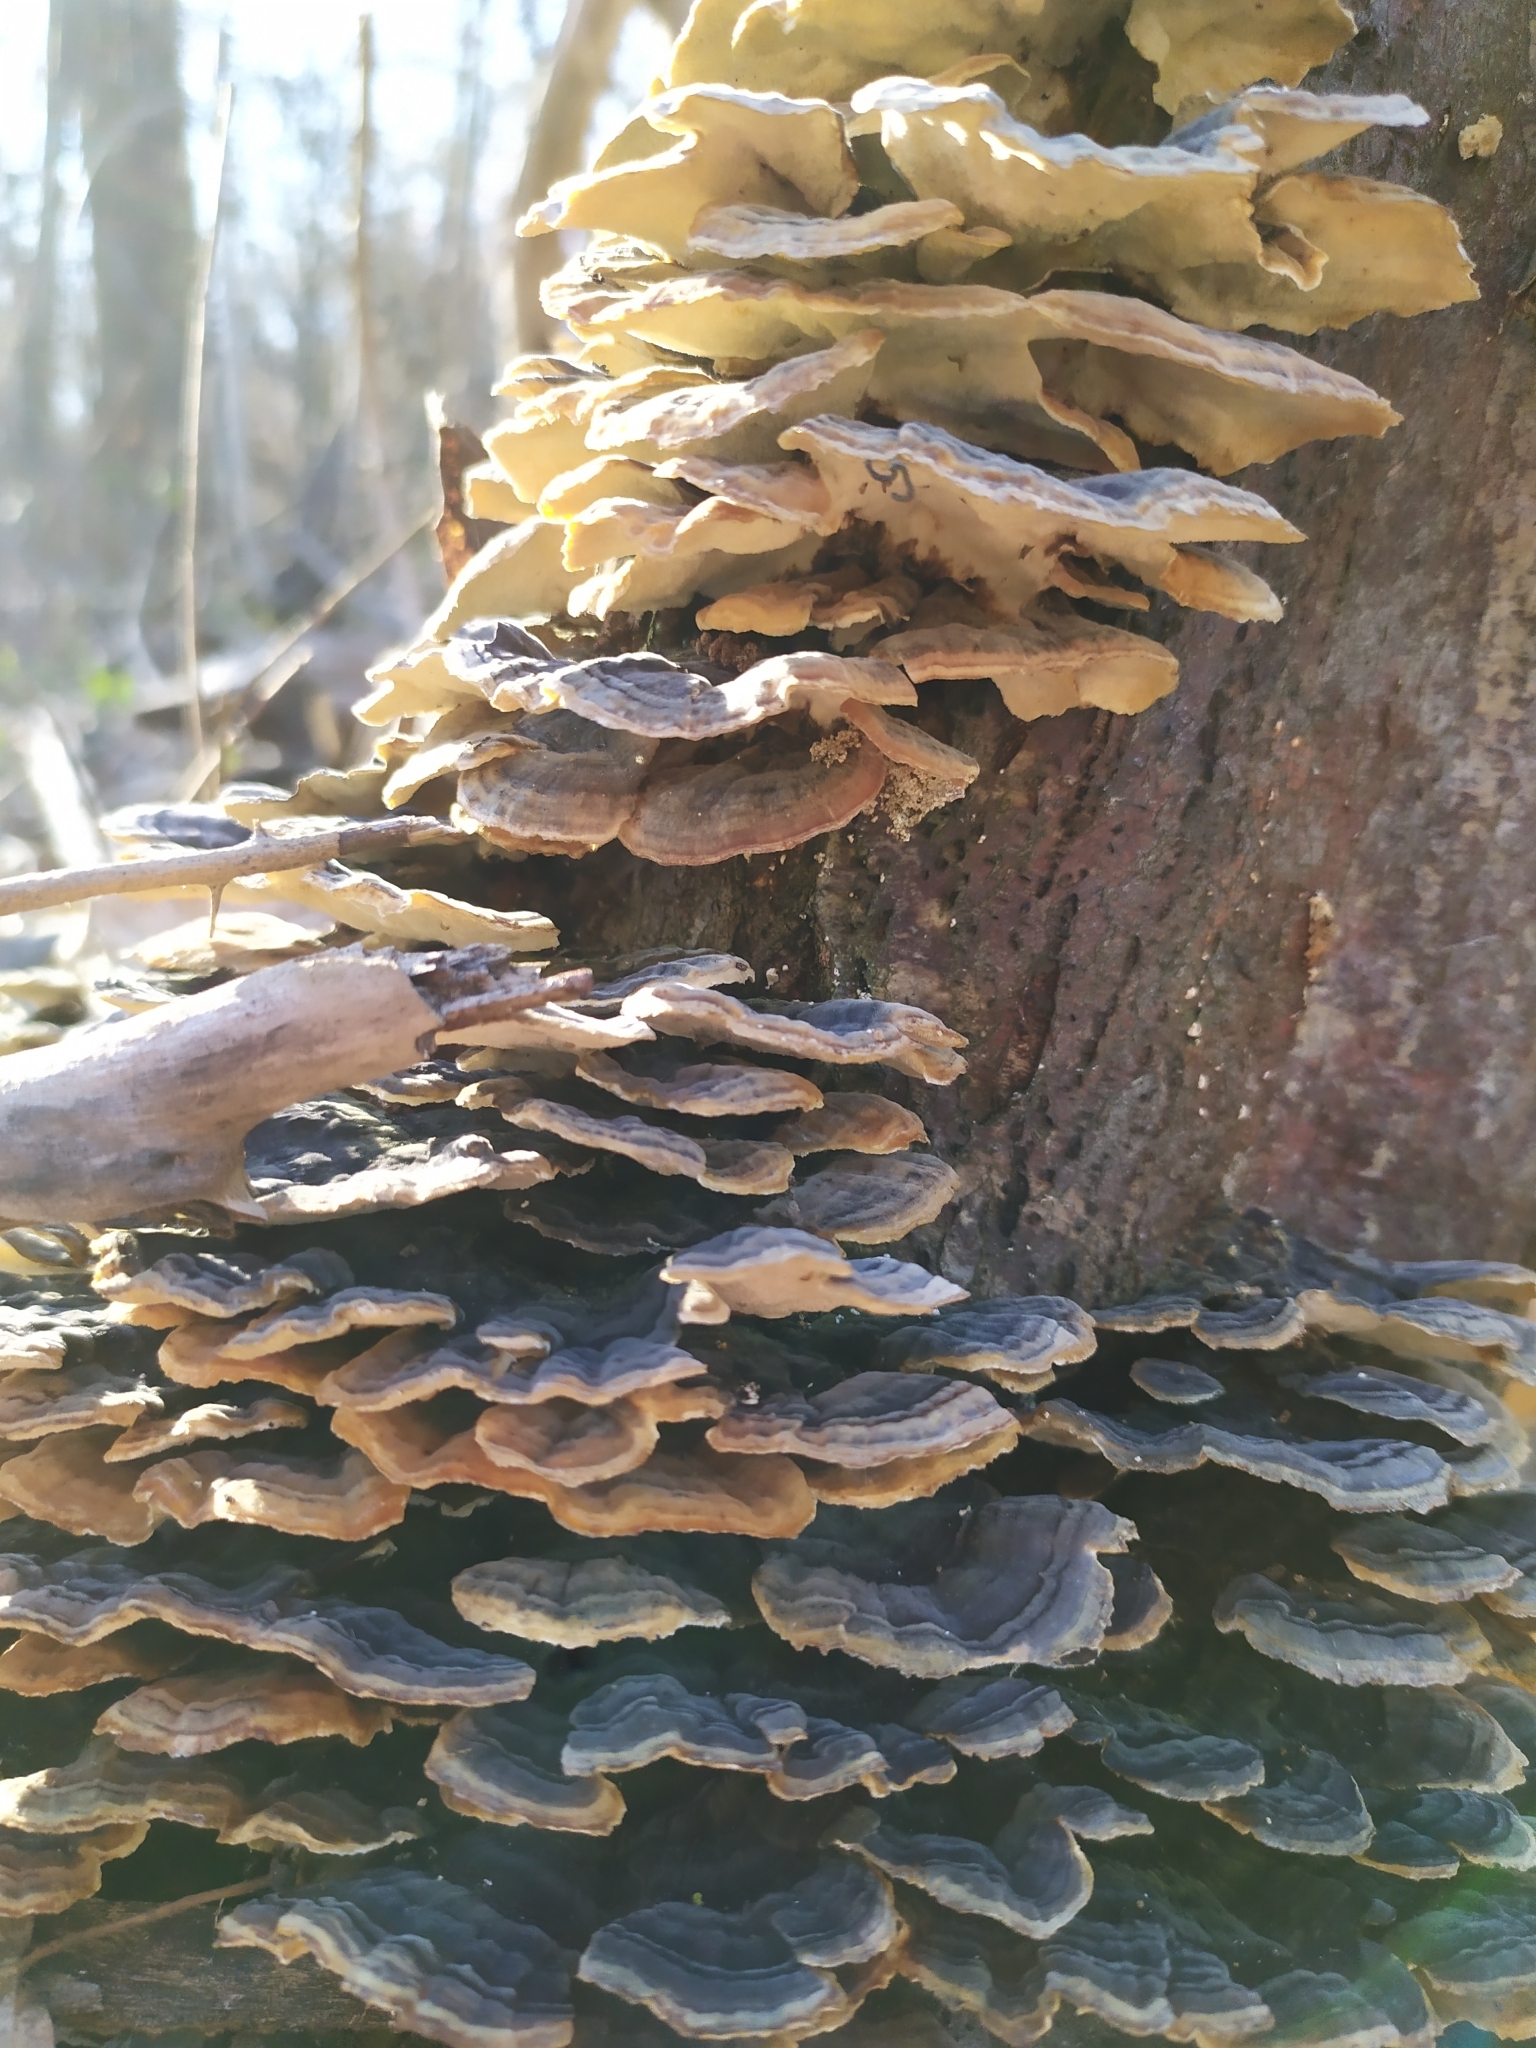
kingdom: Fungi
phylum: Basidiomycota
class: Agaricomycetes
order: Polyporales
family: Polyporaceae
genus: Trametes
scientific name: Trametes versicolor
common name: Turkeytail
